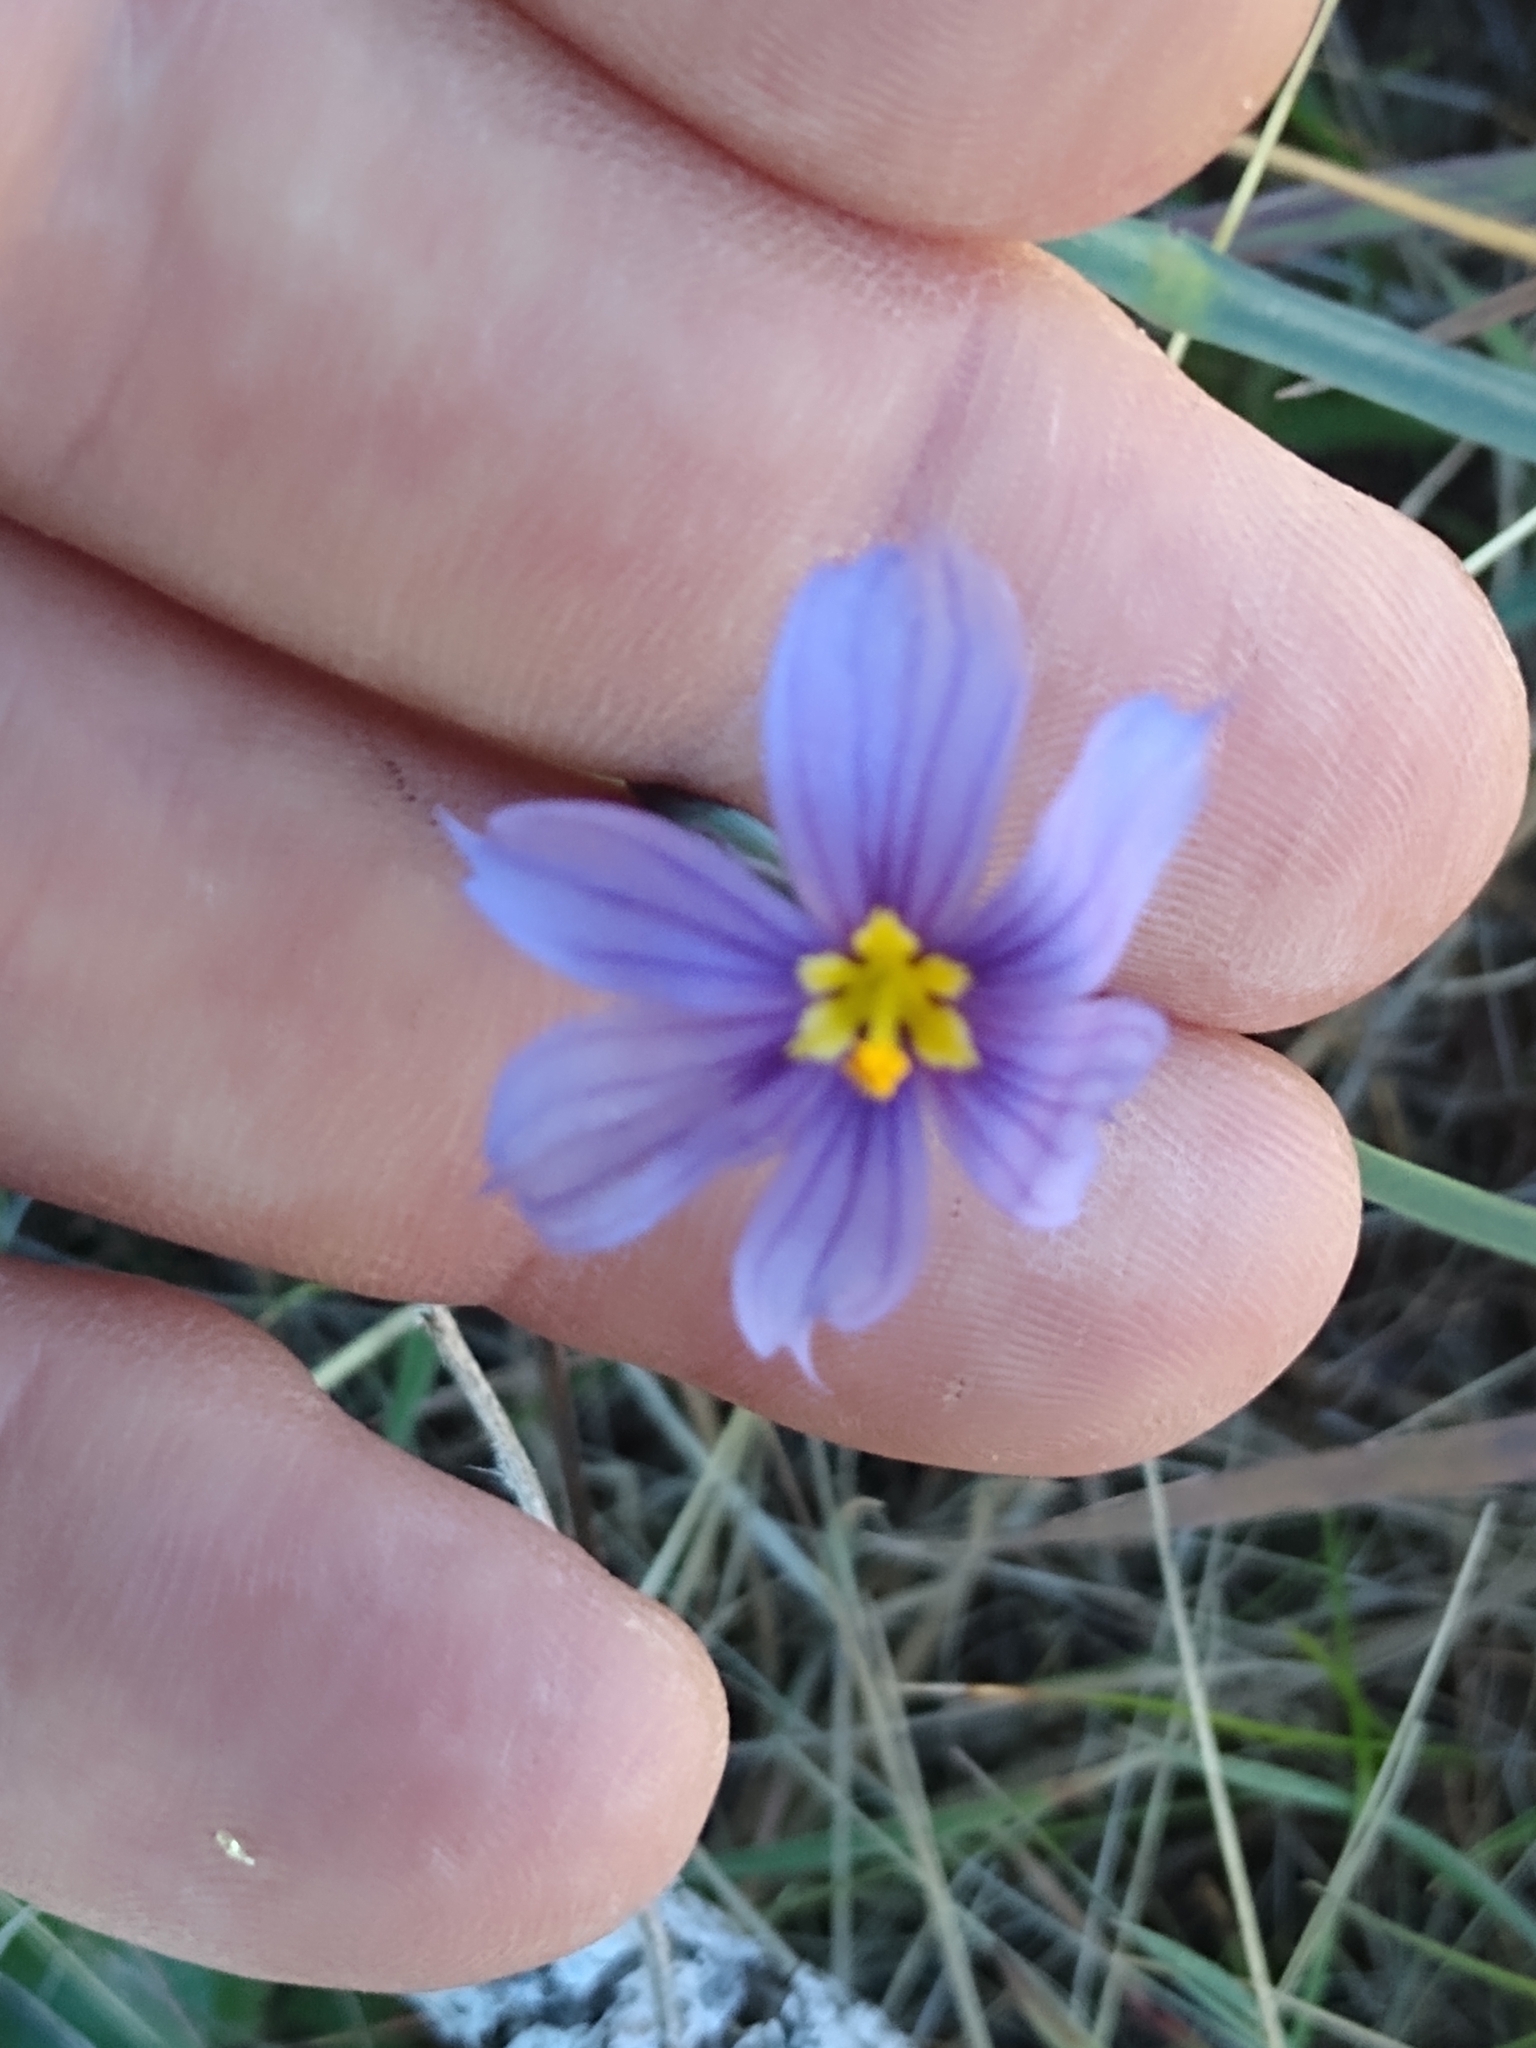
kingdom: Plantae
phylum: Tracheophyta
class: Liliopsida
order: Asparagales
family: Iridaceae
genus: Sisyrinchium
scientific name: Sisyrinchium bellum
